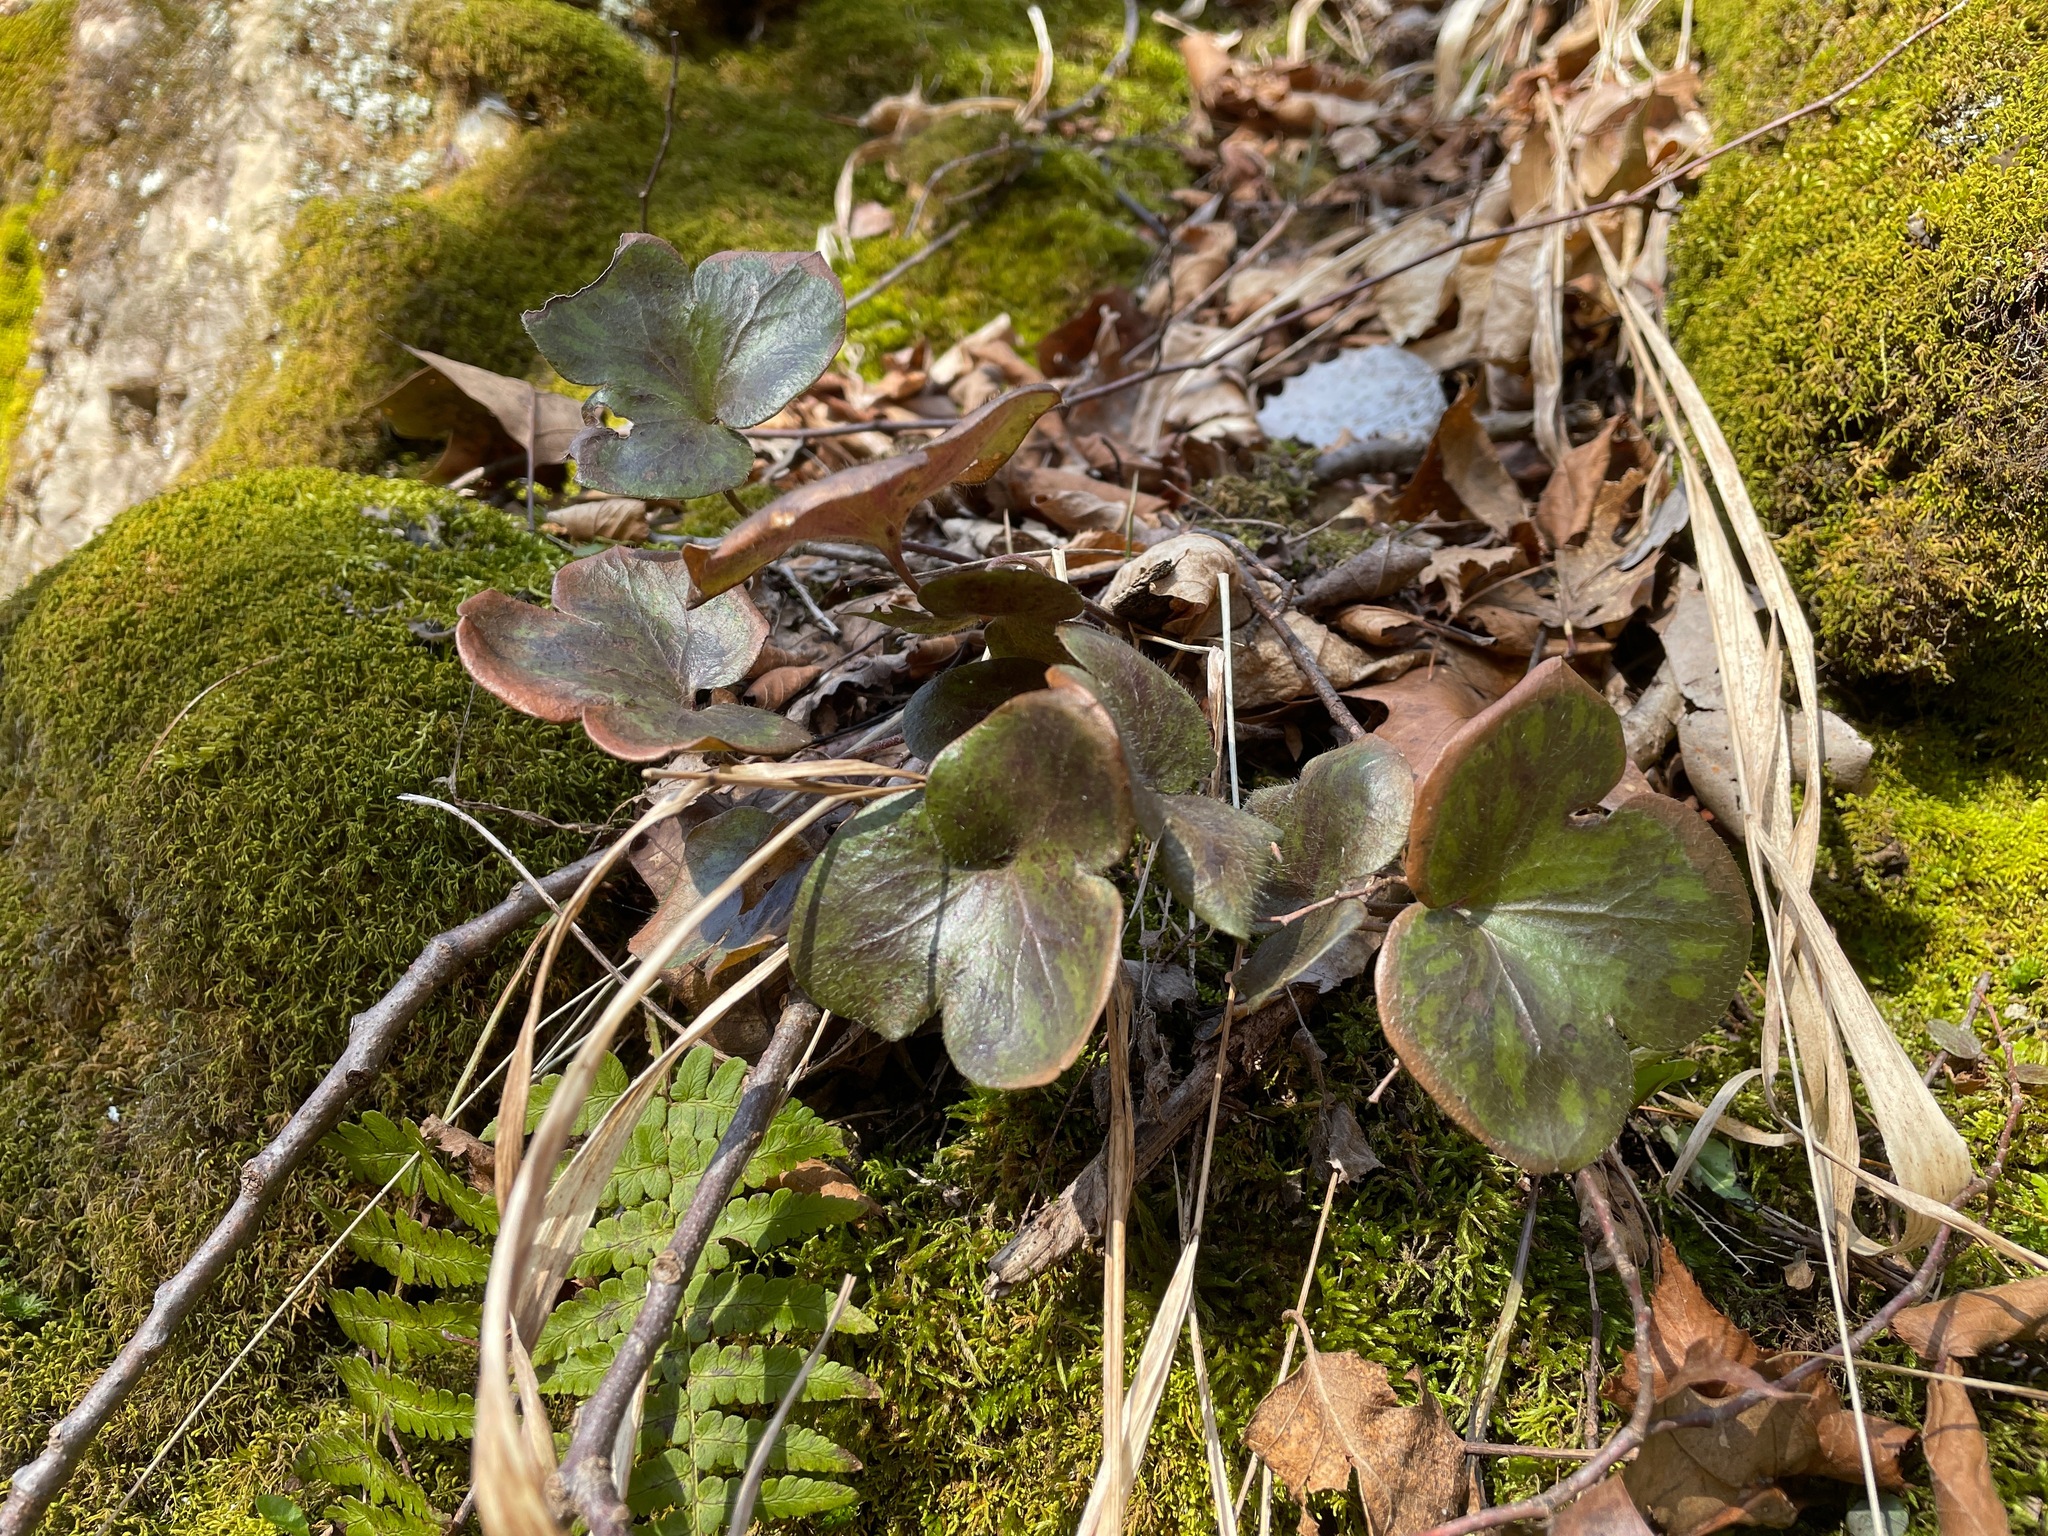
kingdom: Plantae
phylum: Tracheophyta
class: Magnoliopsida
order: Ranunculales
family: Ranunculaceae
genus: Hepatica
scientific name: Hepatica americana
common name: American hepatica
